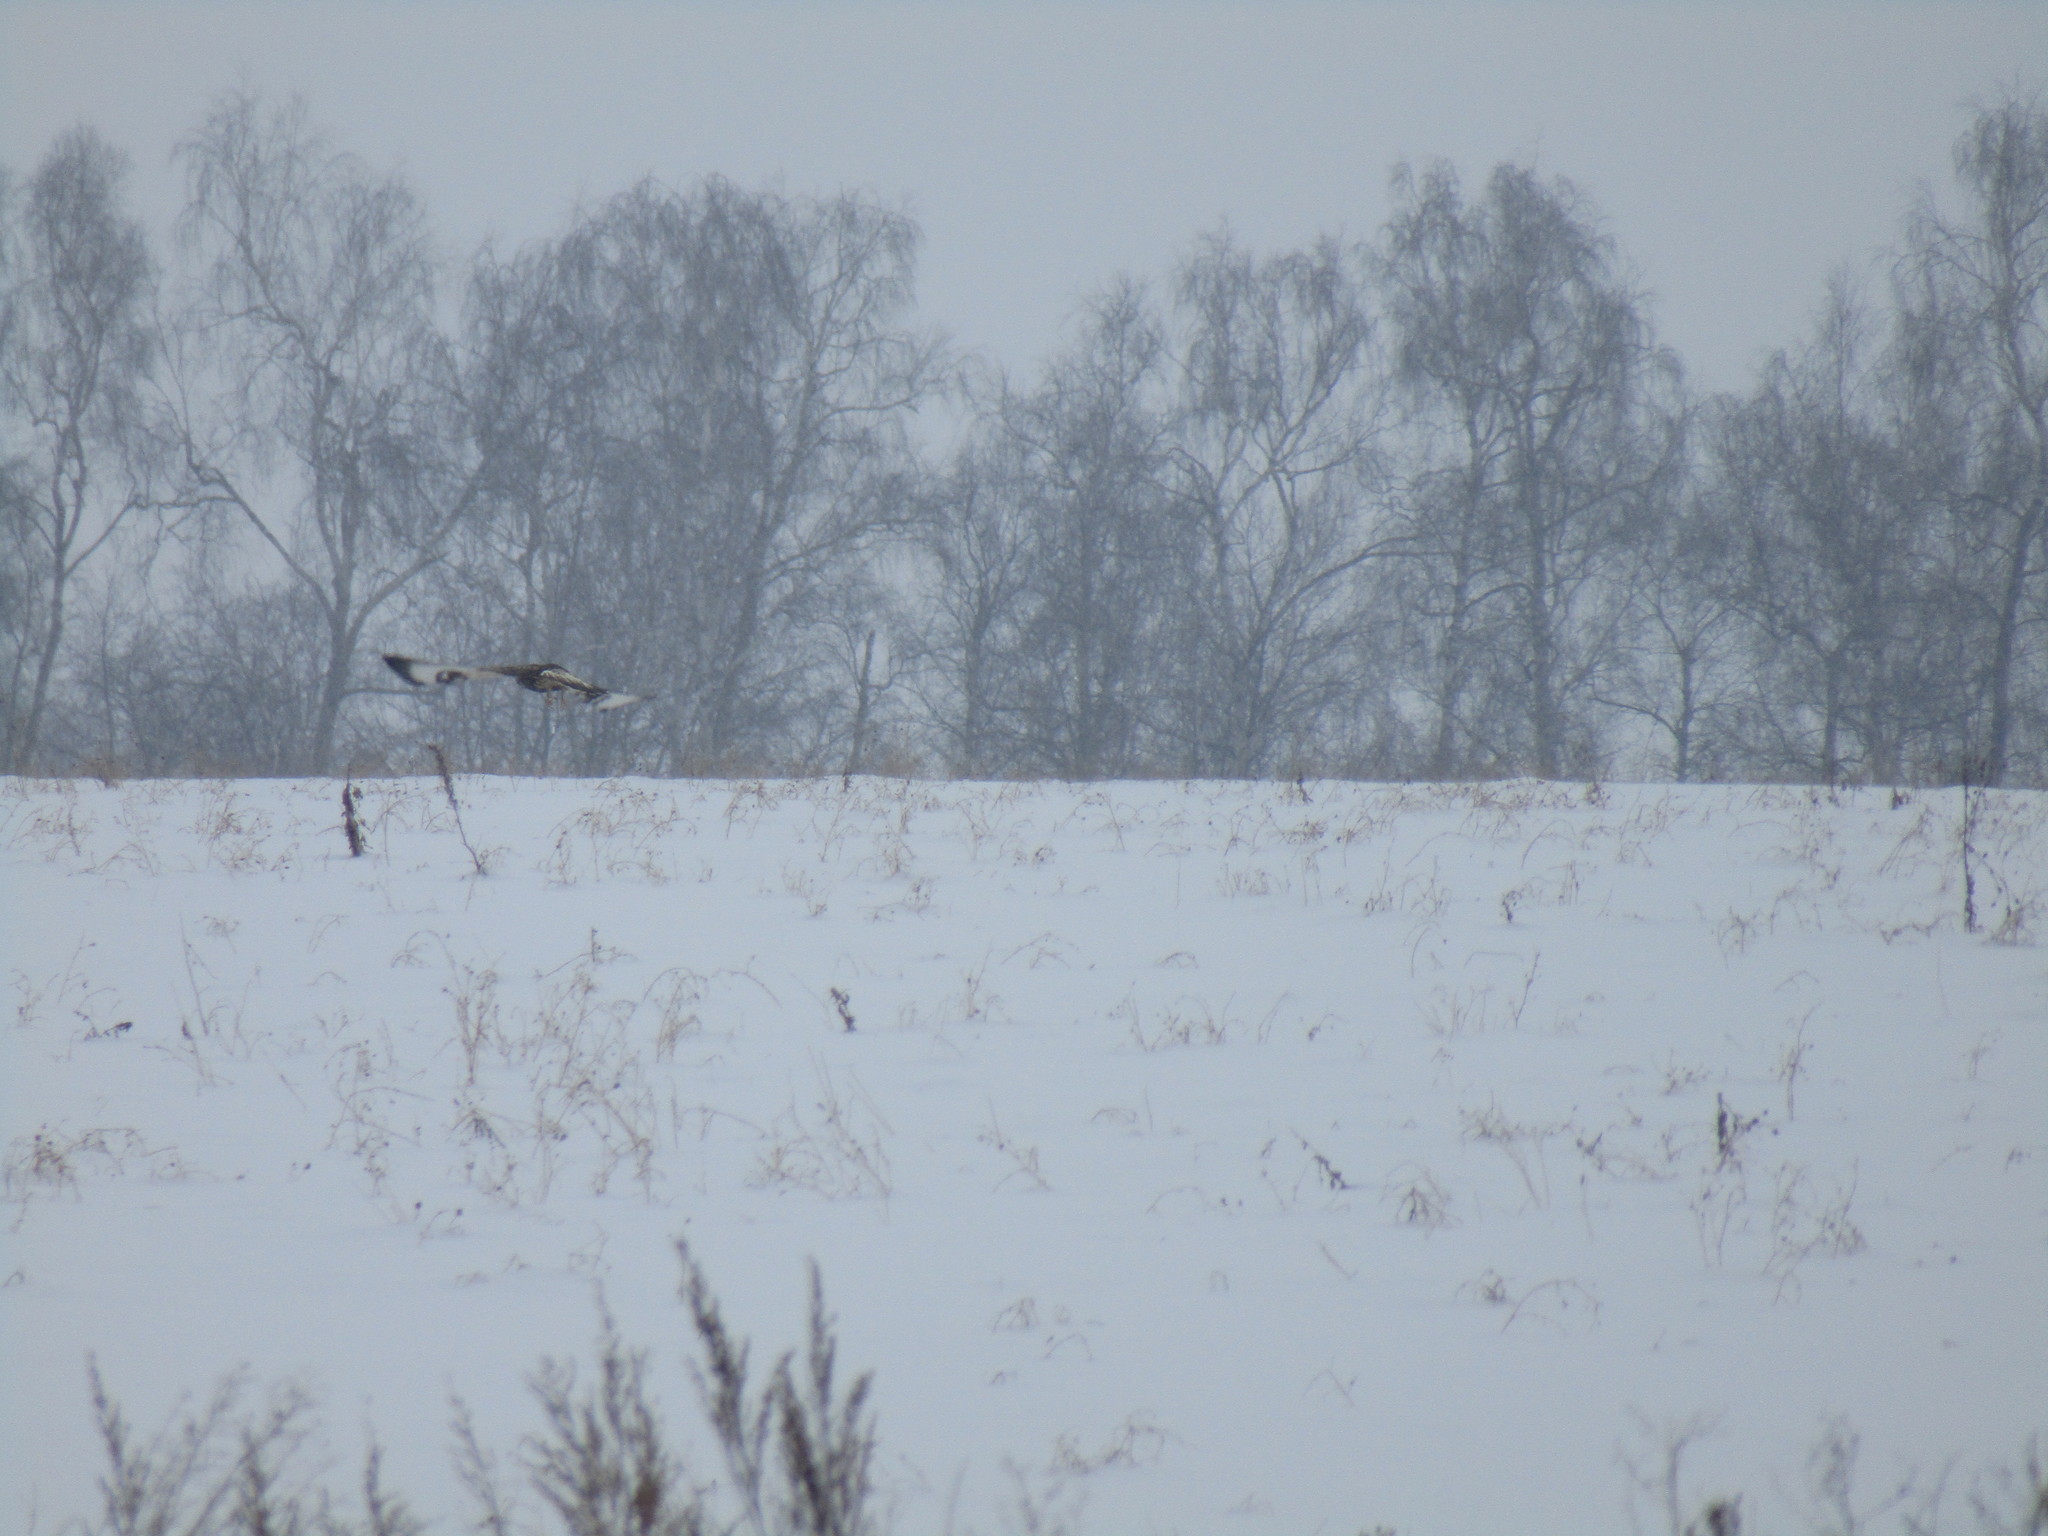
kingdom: Animalia
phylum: Chordata
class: Aves
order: Accipitriformes
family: Accipitridae
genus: Buteo
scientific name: Buteo lagopus
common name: Rough-legged buzzard
